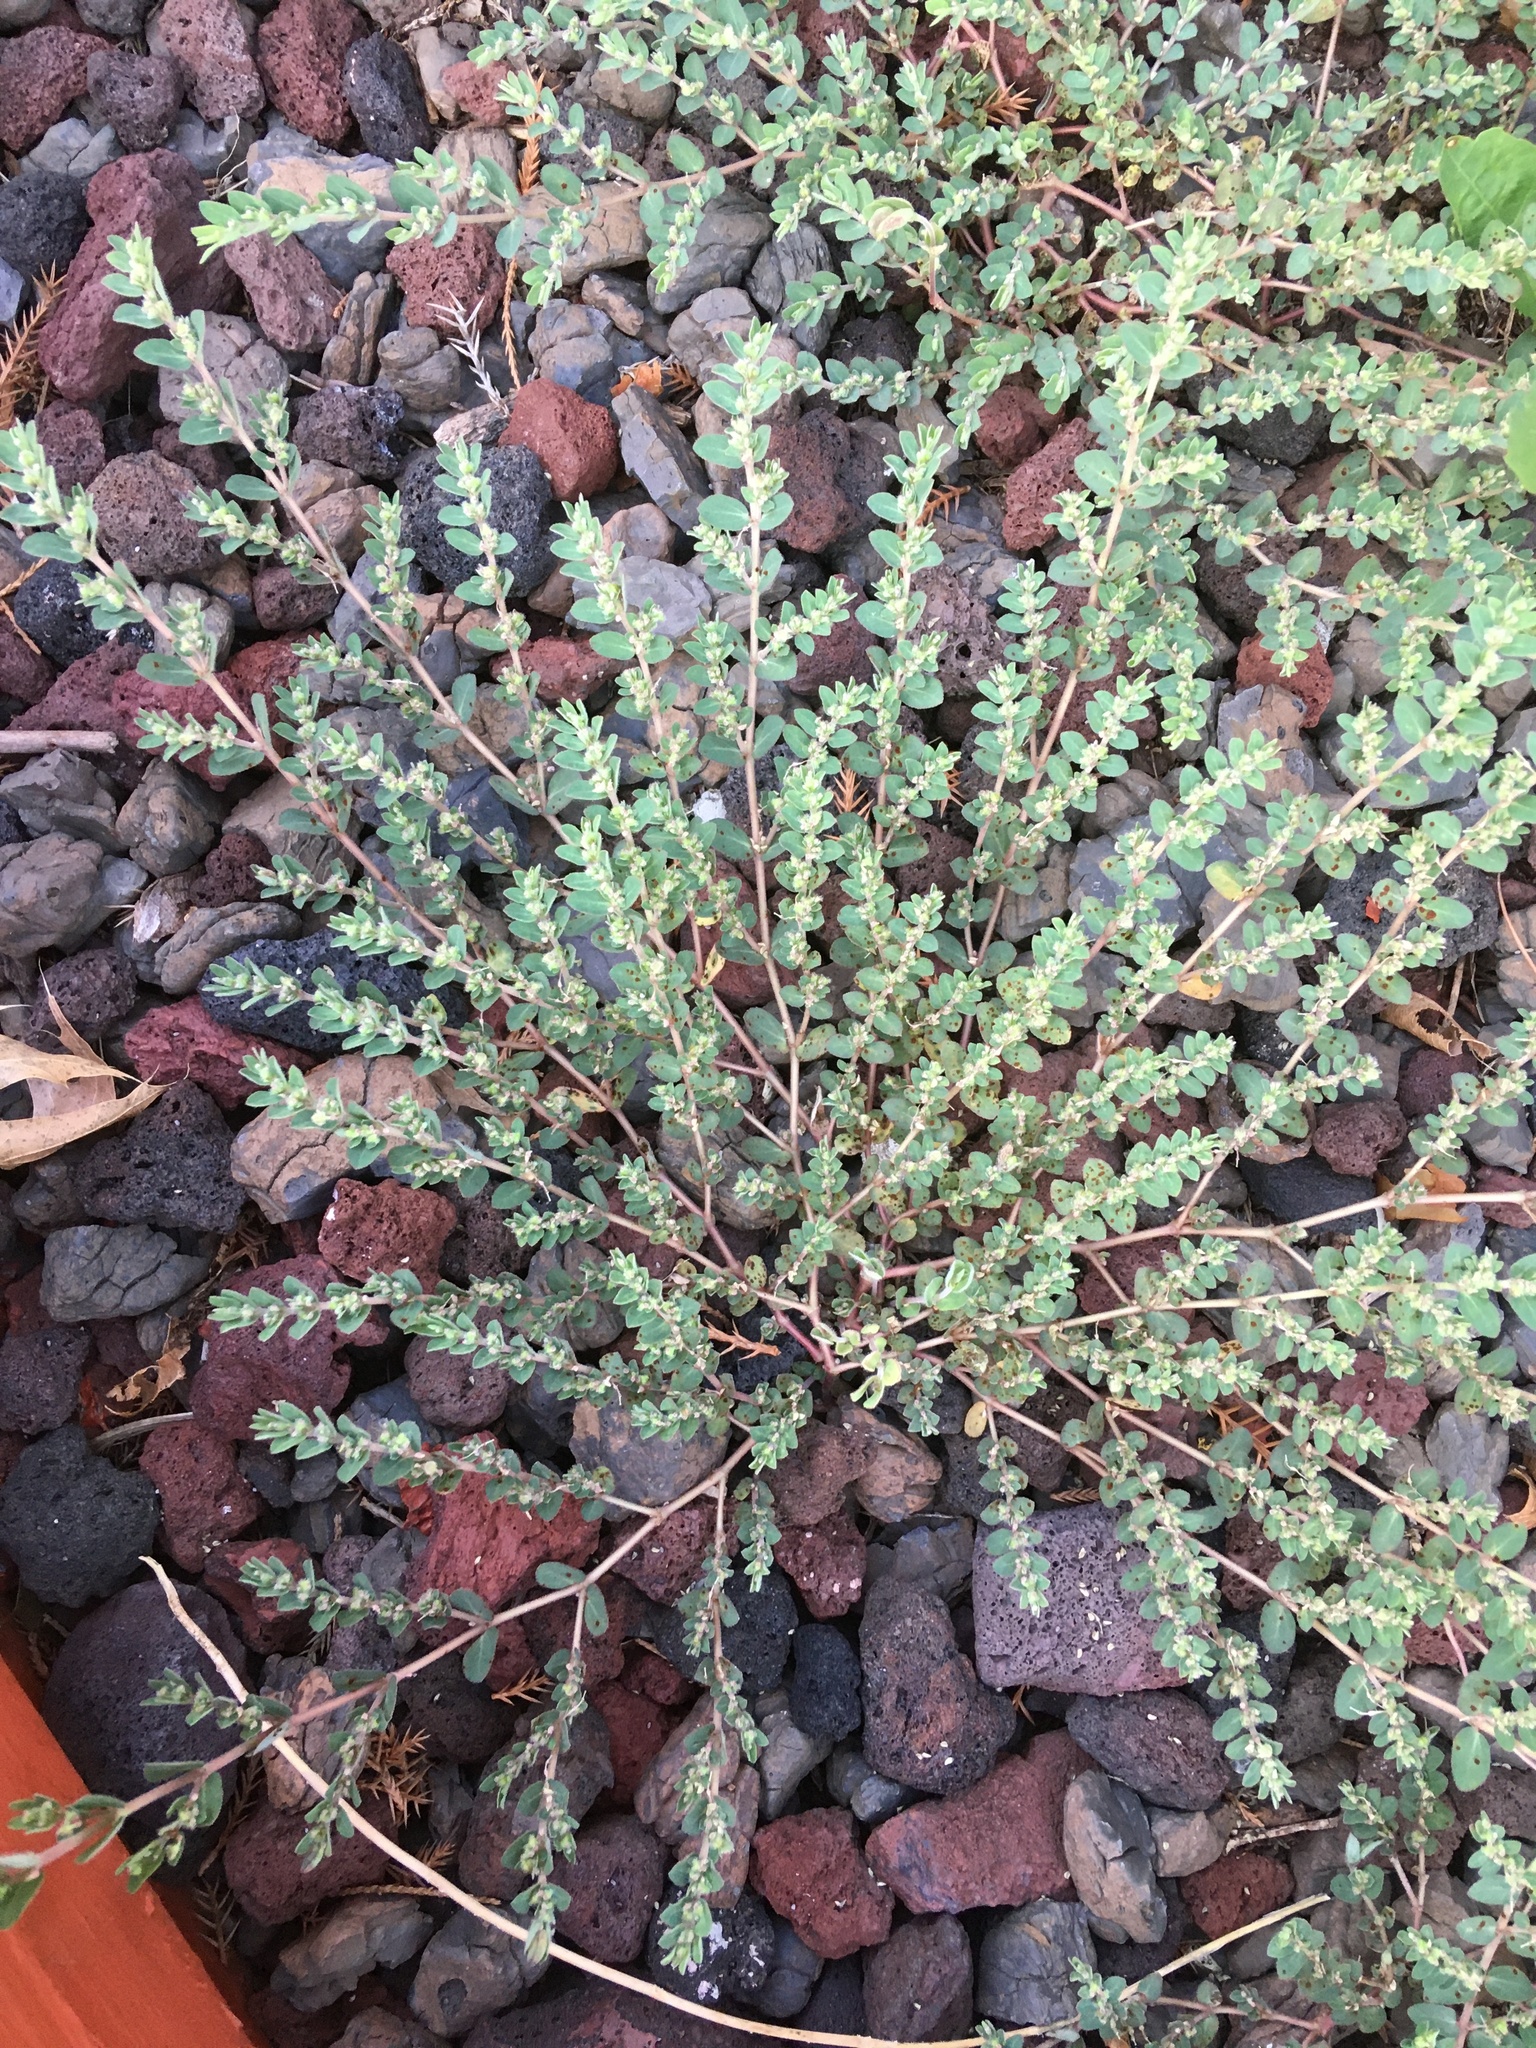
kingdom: Plantae
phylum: Tracheophyta
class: Magnoliopsida
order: Malpighiales
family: Euphorbiaceae
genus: Euphorbia
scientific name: Euphorbia prostrata
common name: Prostrate sandmat
